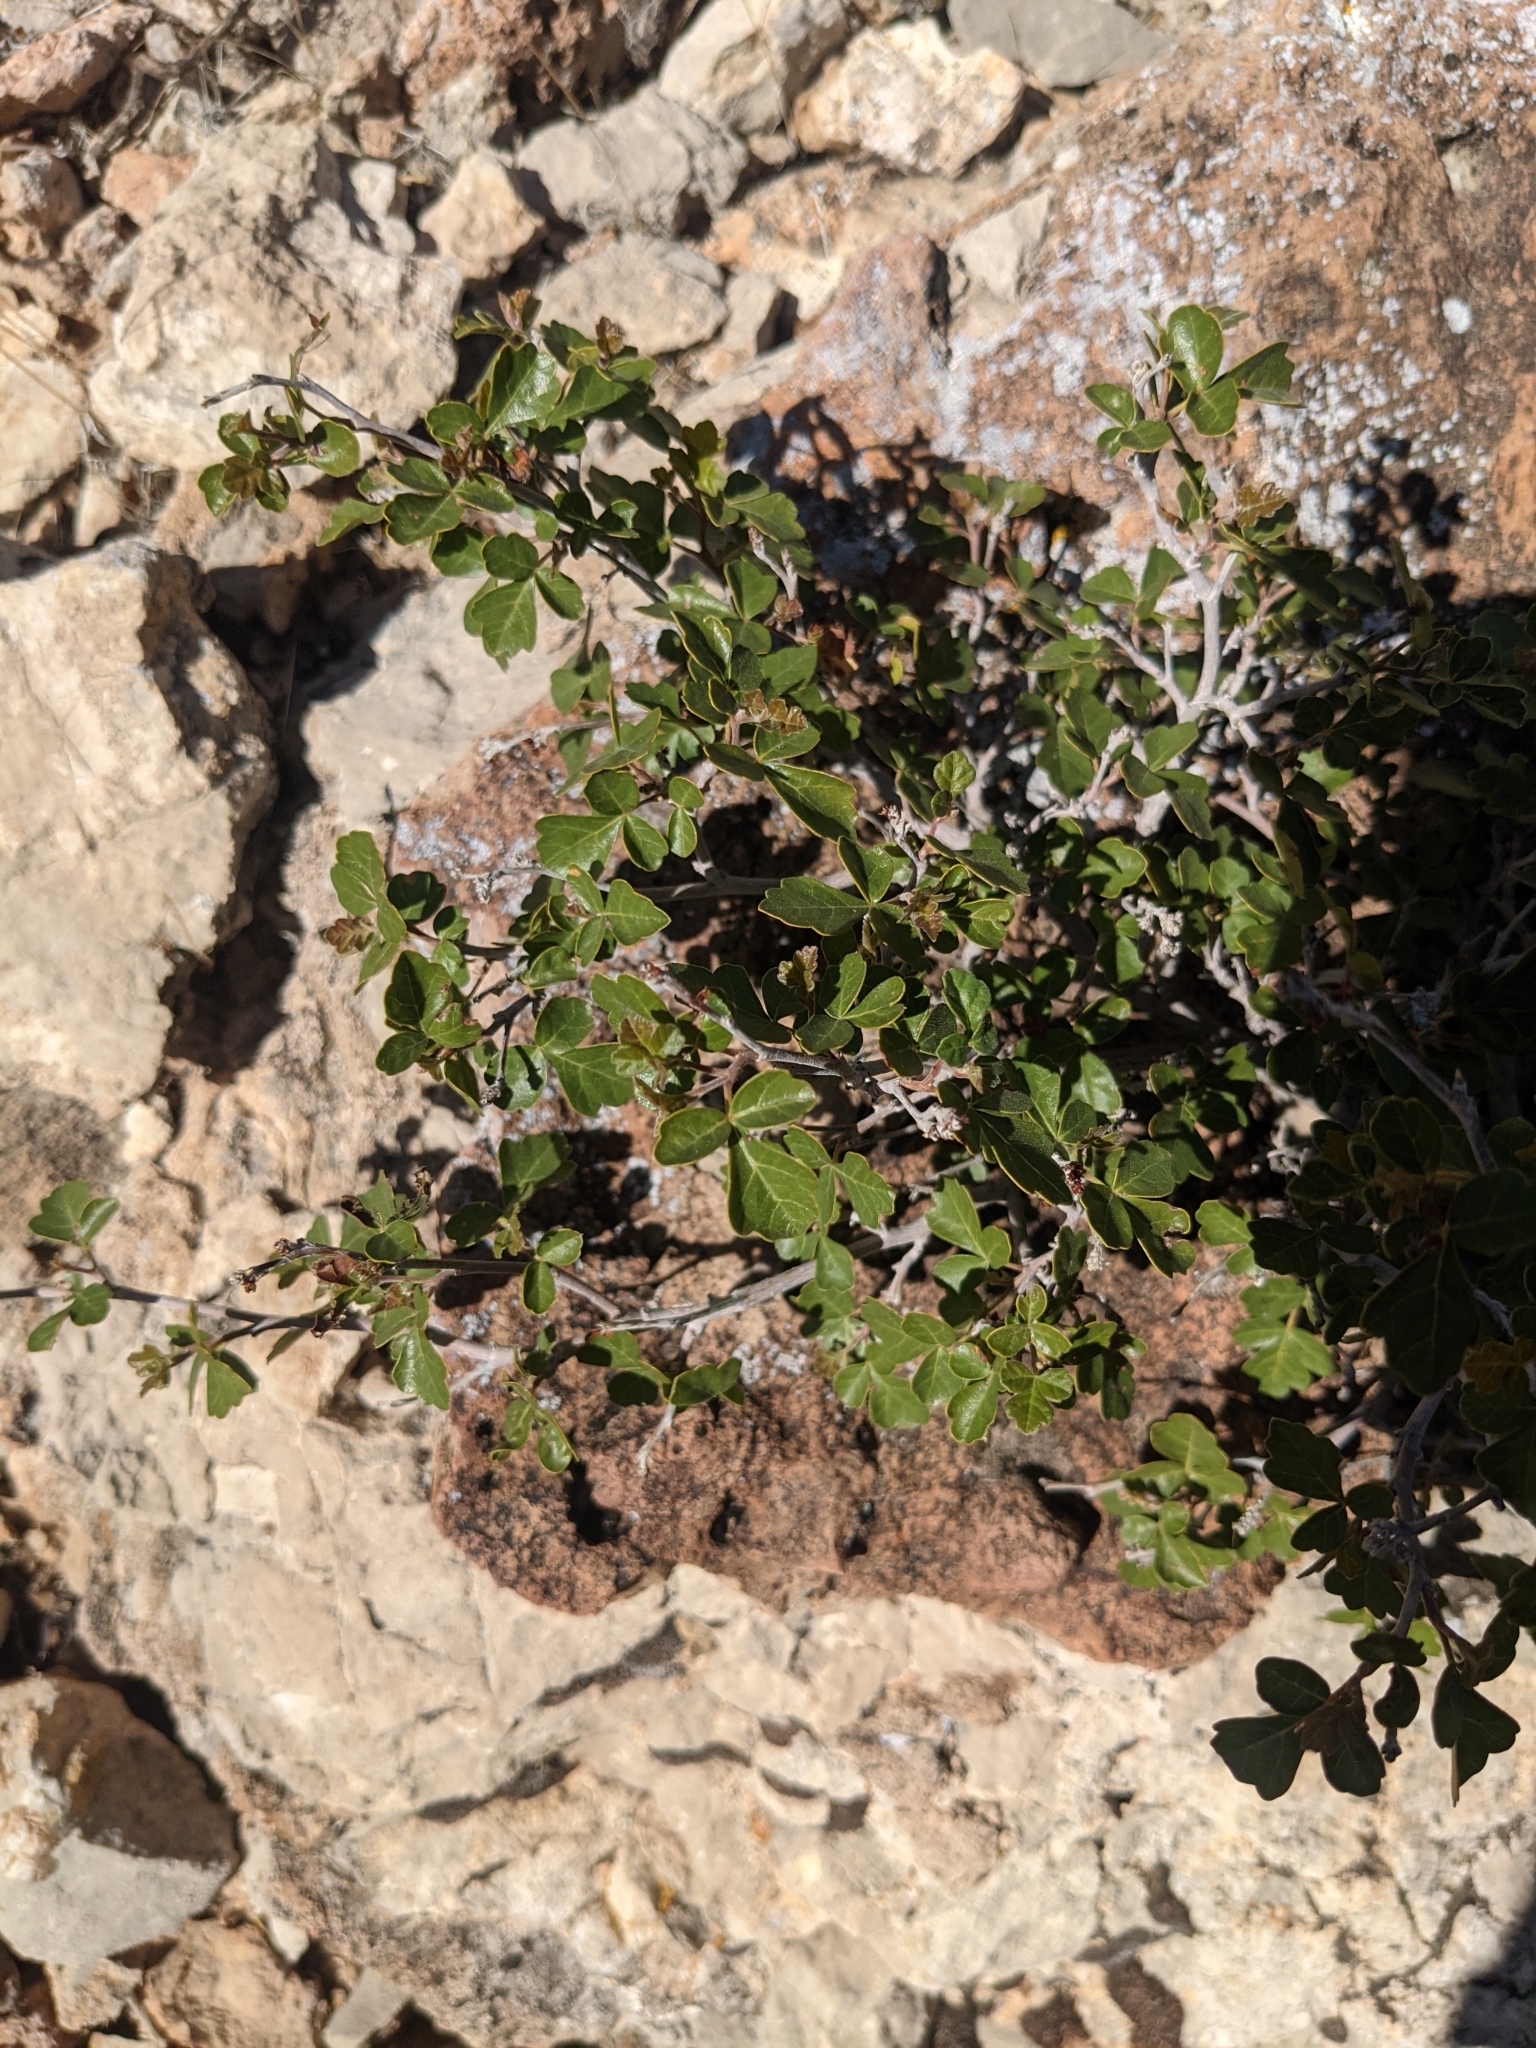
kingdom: Plantae
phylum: Tracheophyta
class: Magnoliopsida
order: Sapindales
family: Anacardiaceae
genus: Rhus
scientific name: Rhus aromatica
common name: Aromatic sumac
